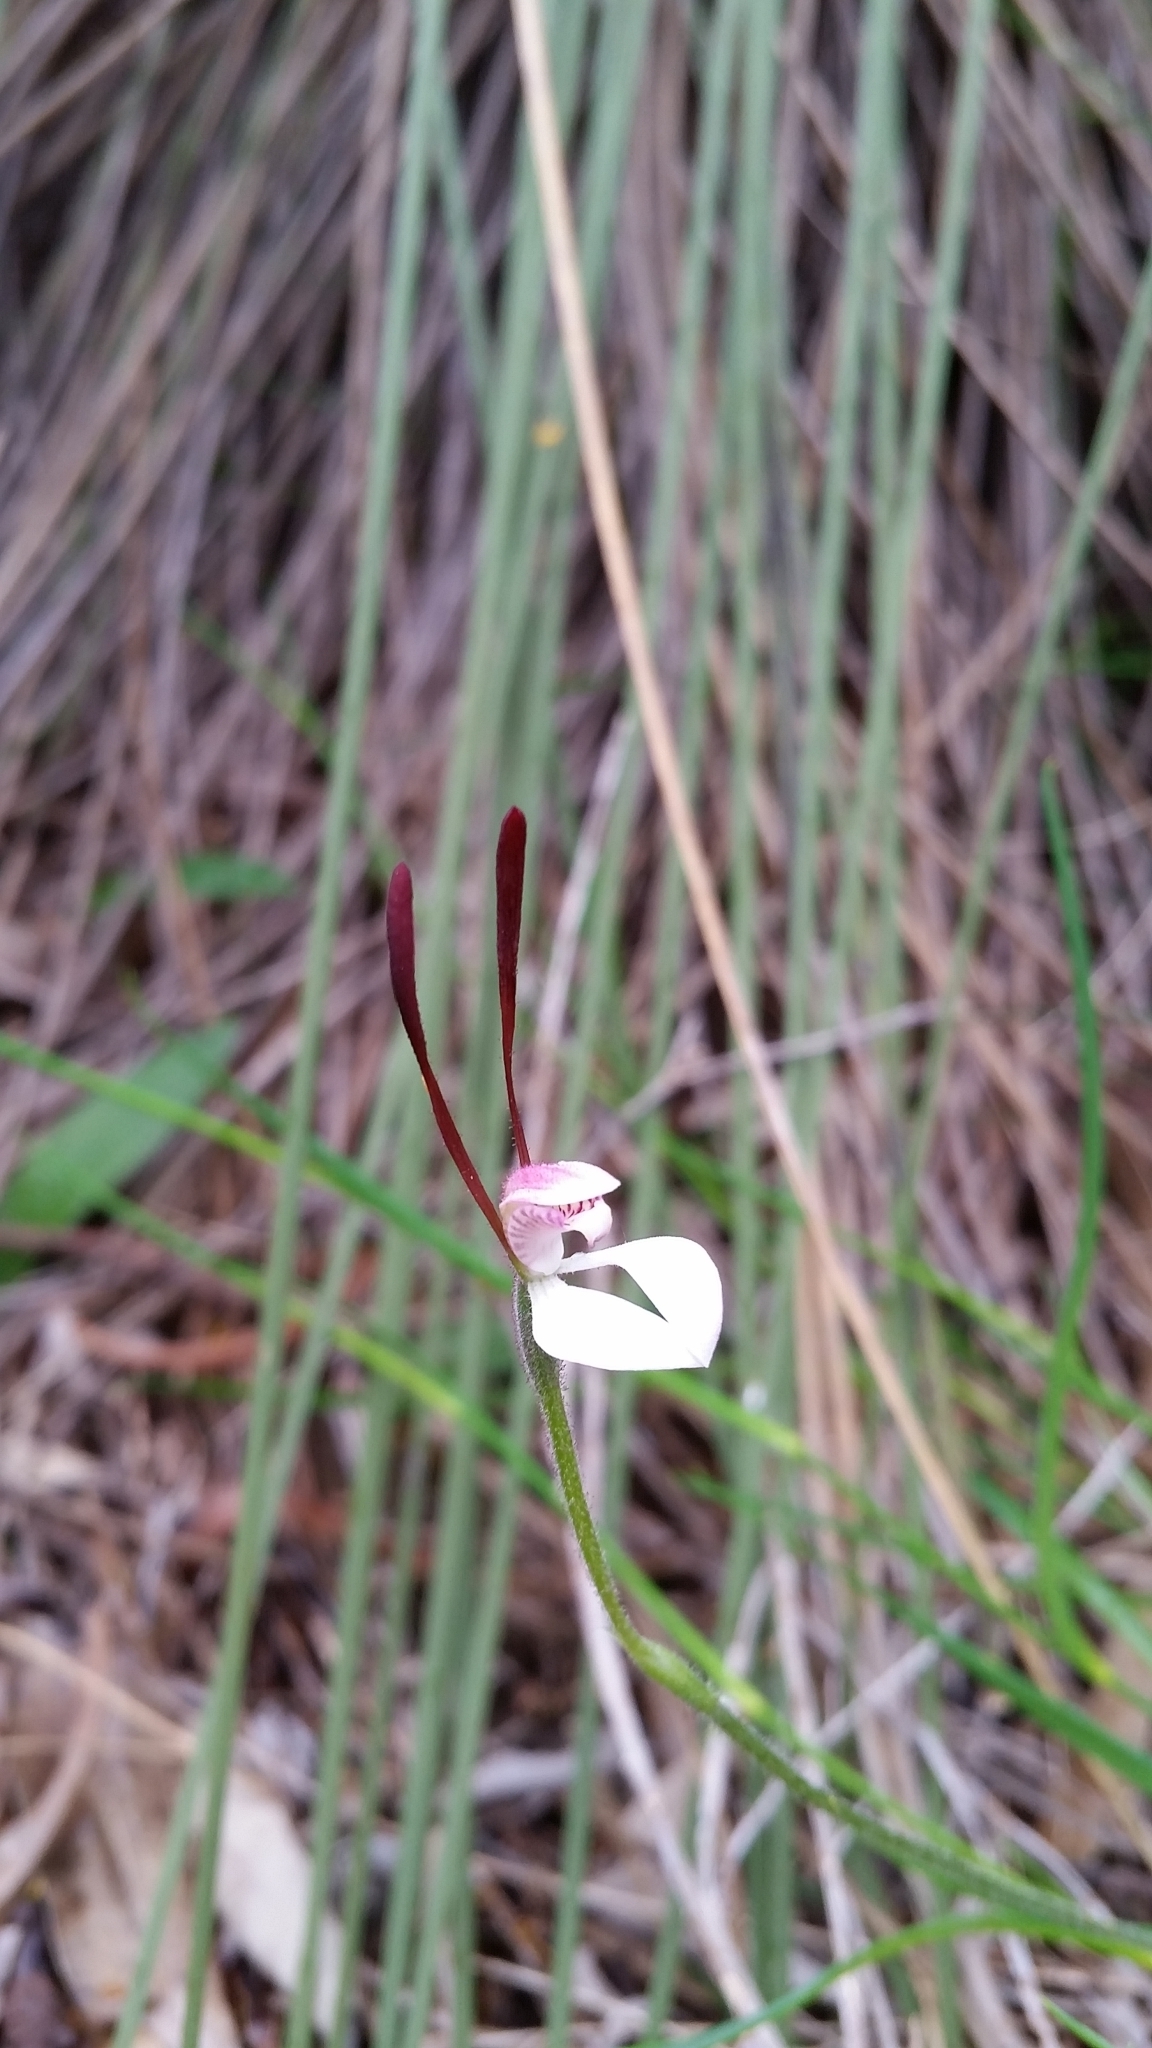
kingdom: Plantae
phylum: Tracheophyta
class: Liliopsida
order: Asparagales
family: Orchidaceae
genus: Leptoceras
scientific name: Leptoceras menziesii
